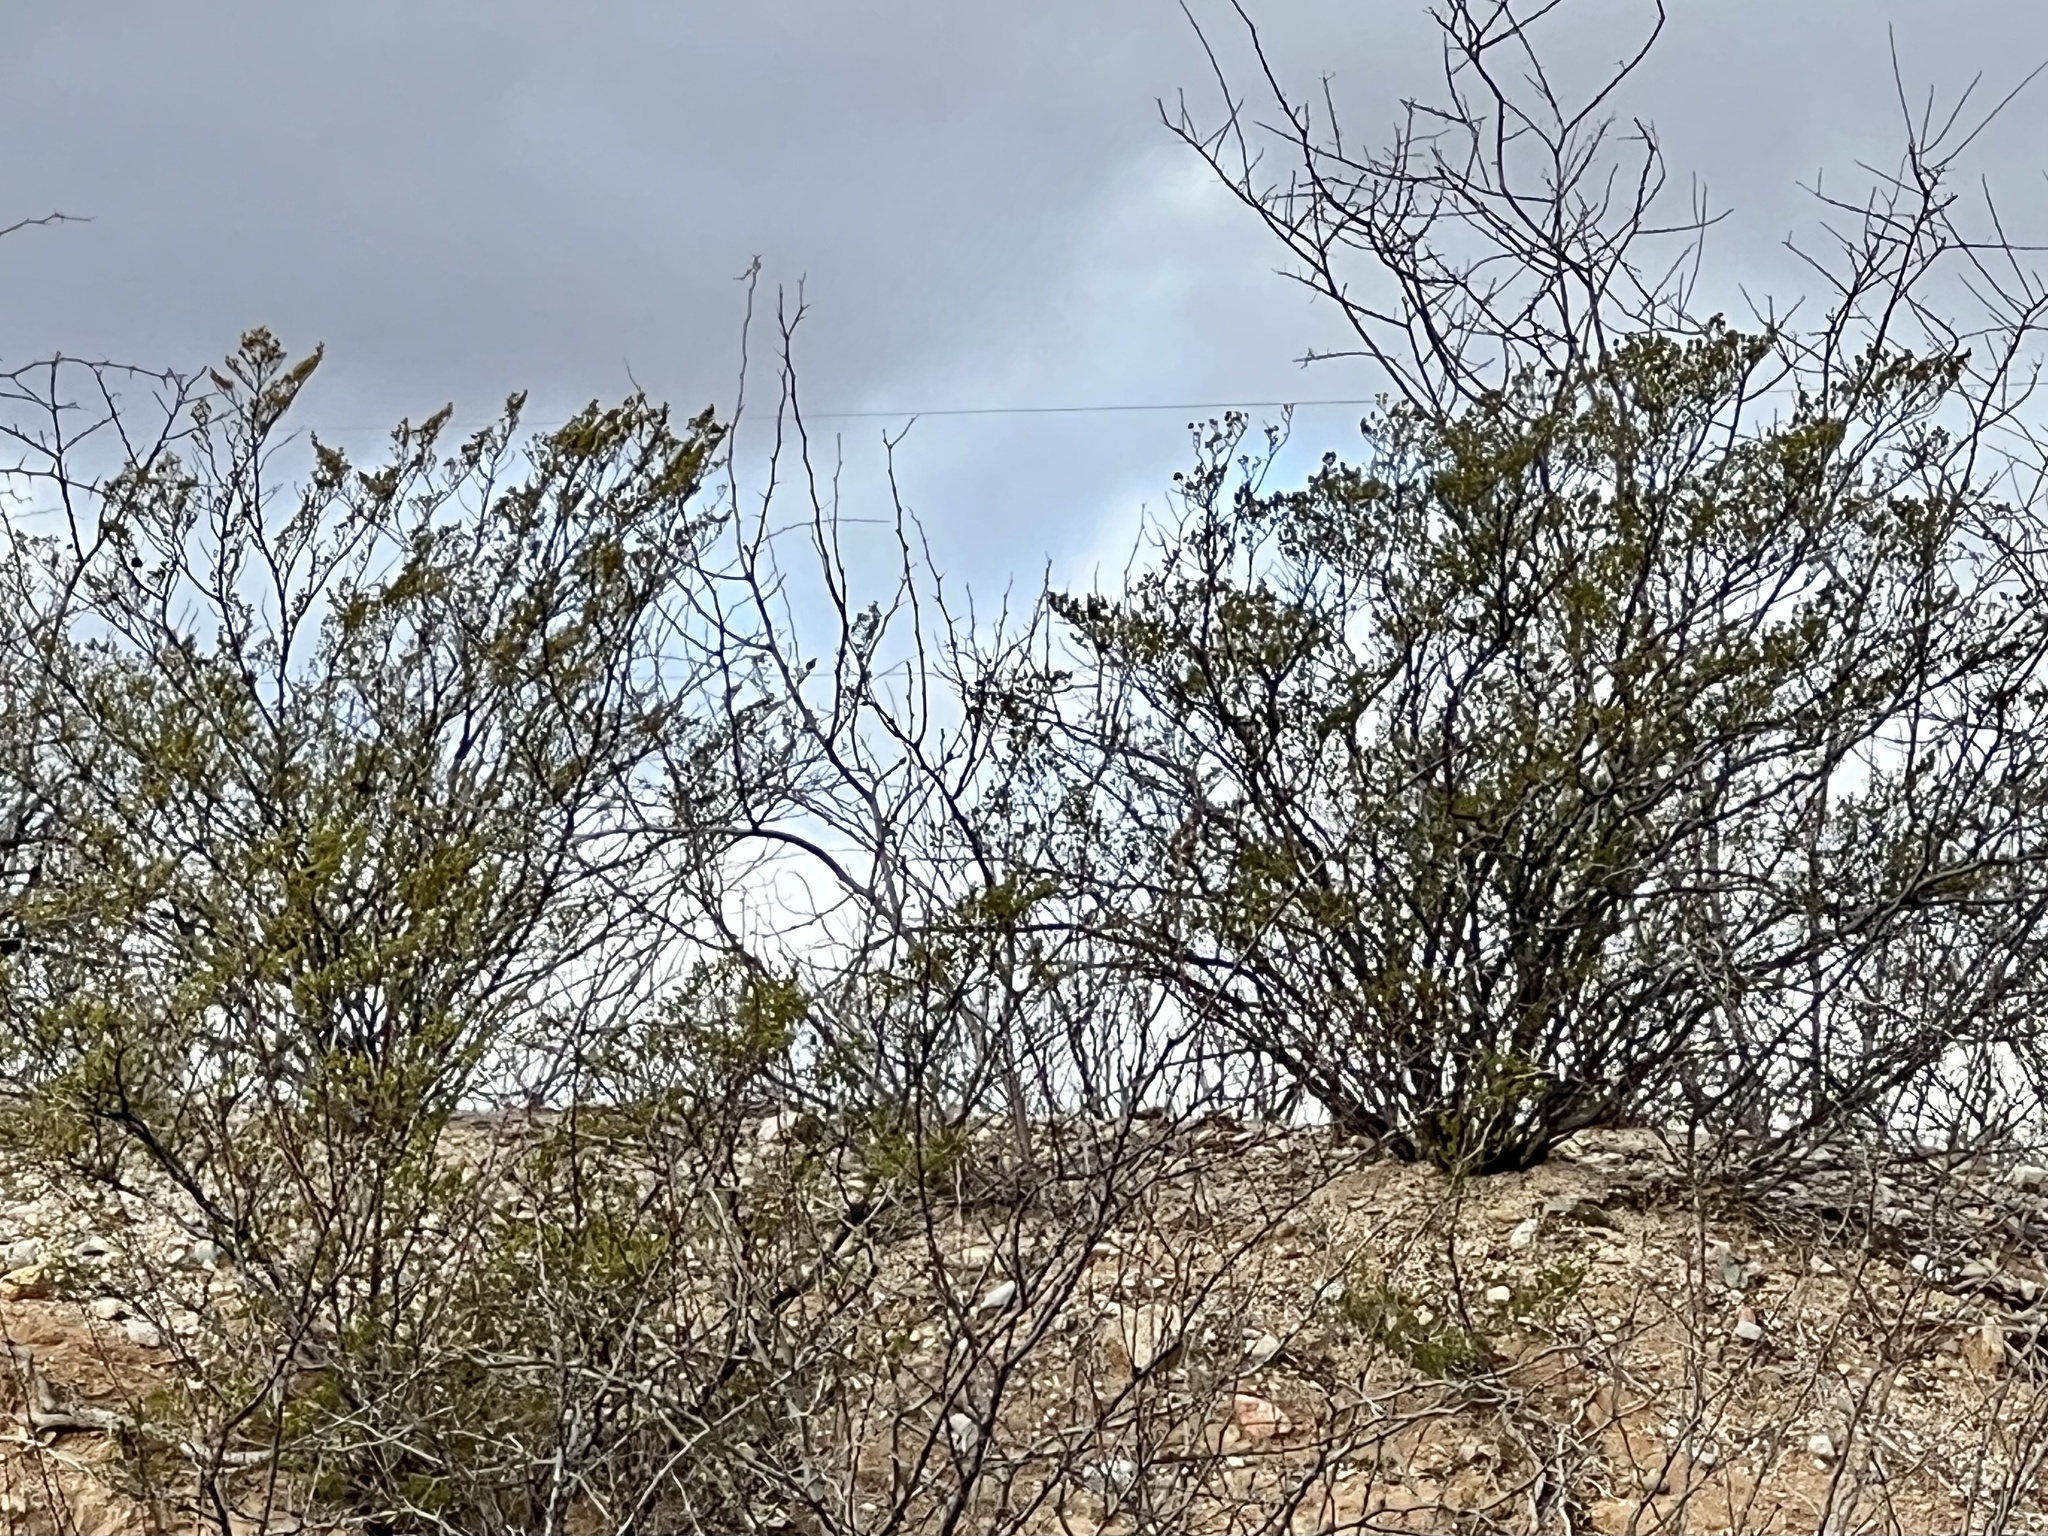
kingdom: Plantae
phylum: Tracheophyta
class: Magnoliopsida
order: Zygophyllales
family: Zygophyllaceae
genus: Larrea
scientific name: Larrea tridentata
